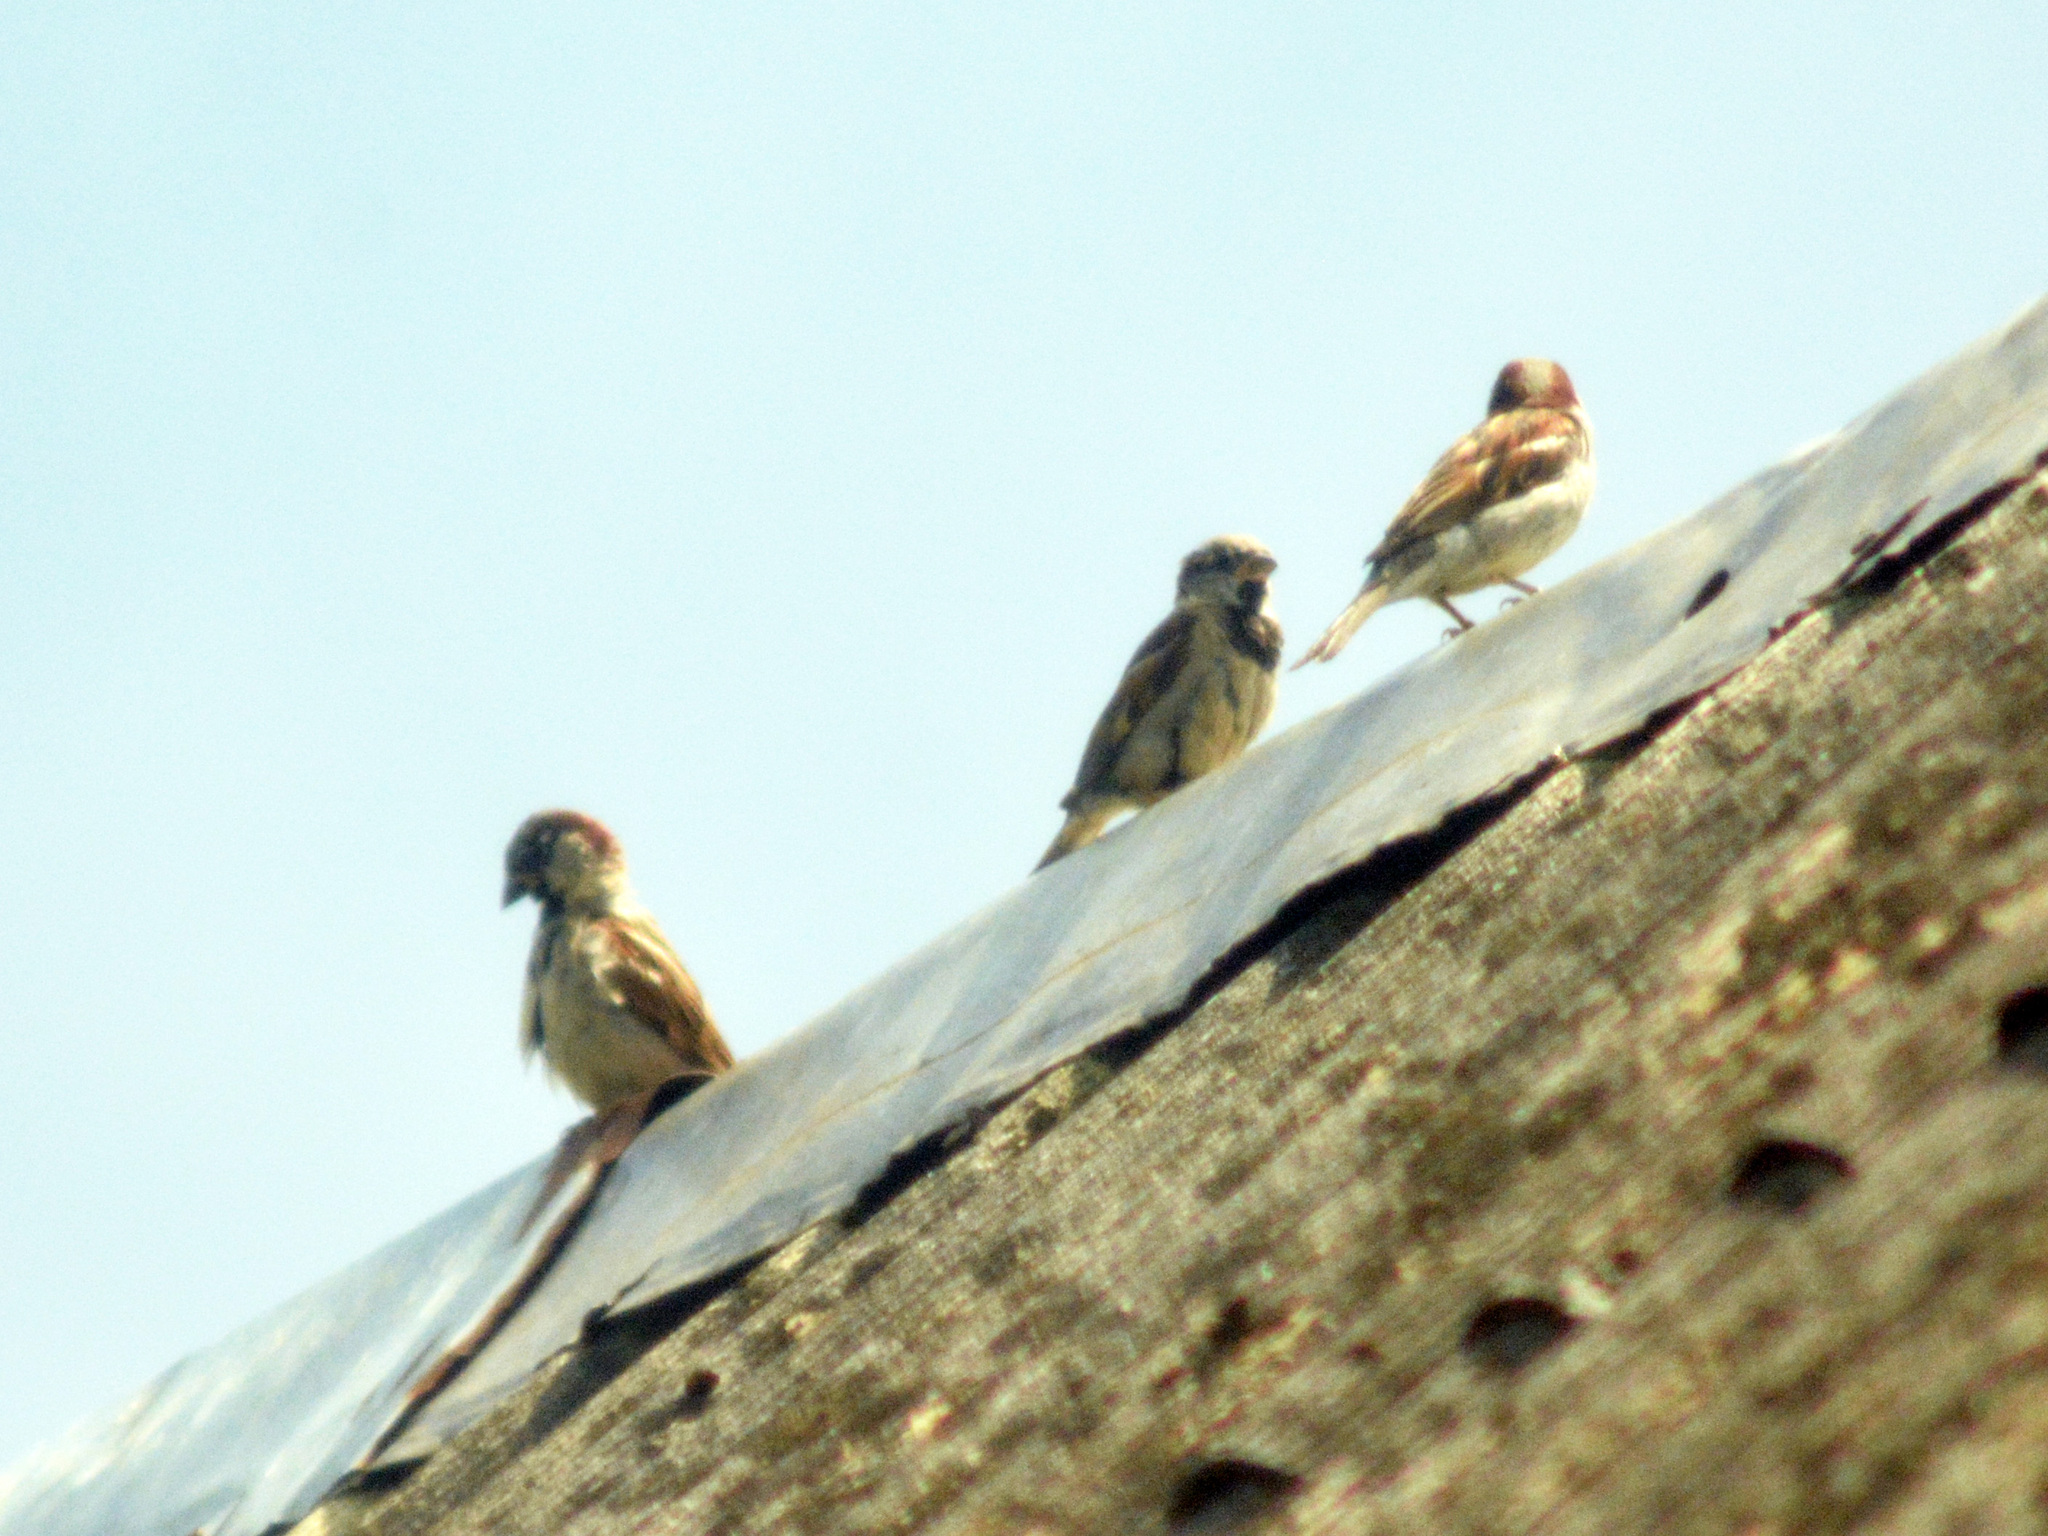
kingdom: Animalia
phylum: Chordata
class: Aves
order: Passeriformes
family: Passeridae
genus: Passer
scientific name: Passer domesticus
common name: House sparrow
